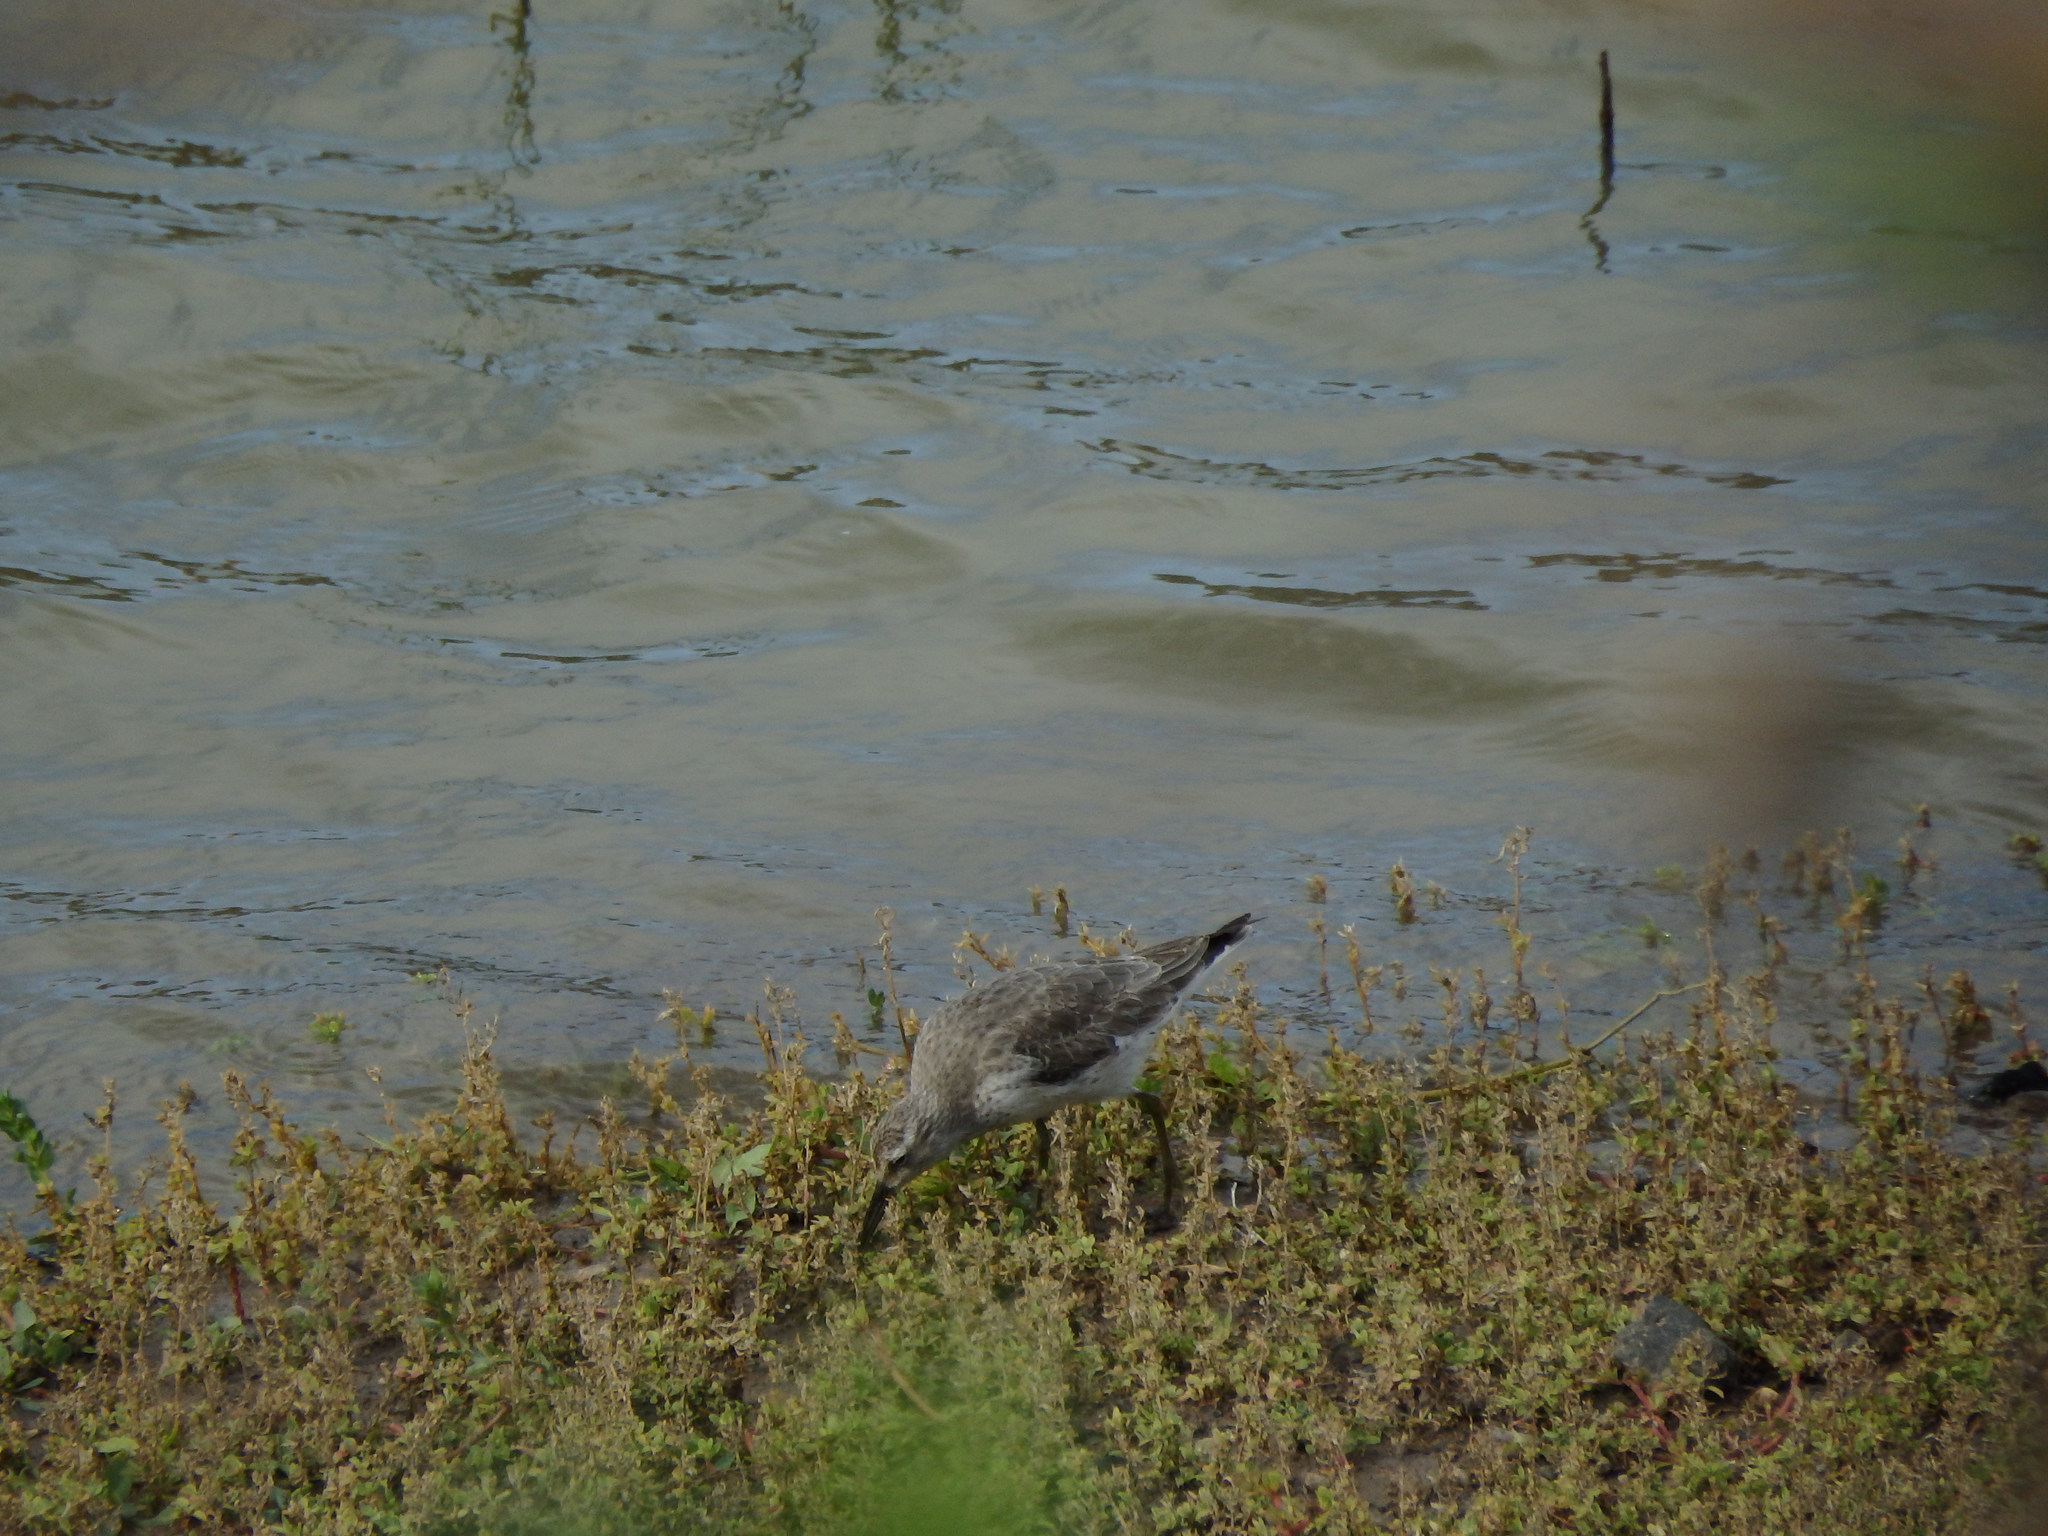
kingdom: Animalia
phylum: Chordata
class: Aves
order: Charadriiformes
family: Scolopacidae
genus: Calidris
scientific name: Calidris canutus
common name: Red knot
